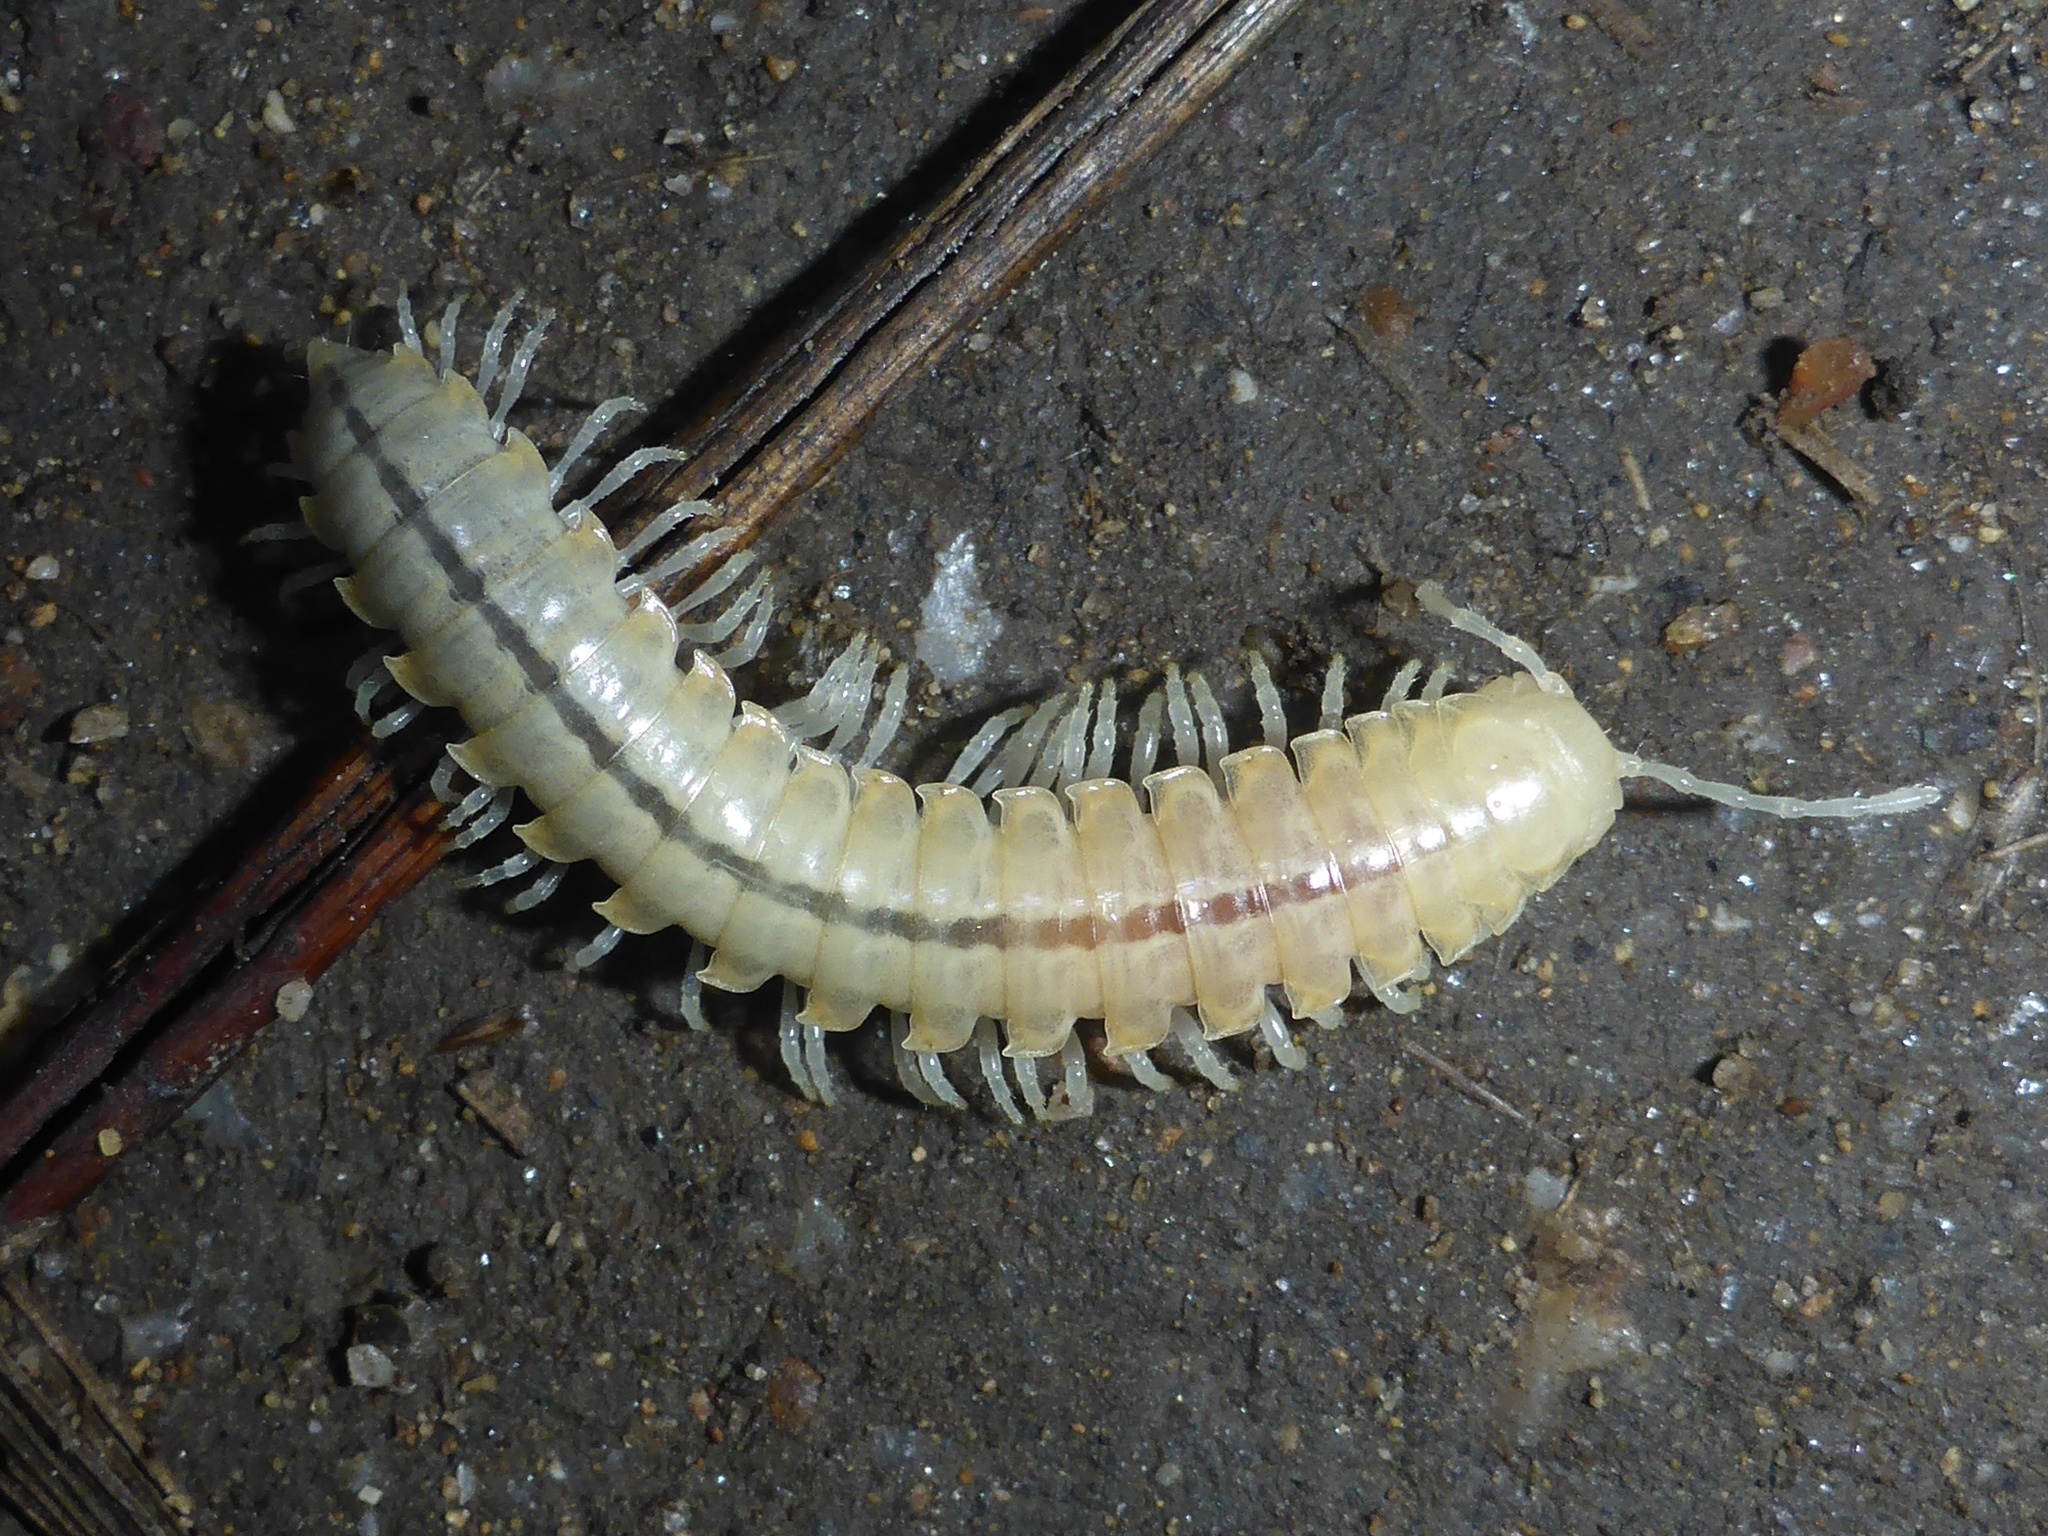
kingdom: Animalia
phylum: Arthropoda
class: Diplopoda
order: Polydesmida
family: Xystodesmidae
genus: Xystocheir
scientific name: Xystocheir dissecta
